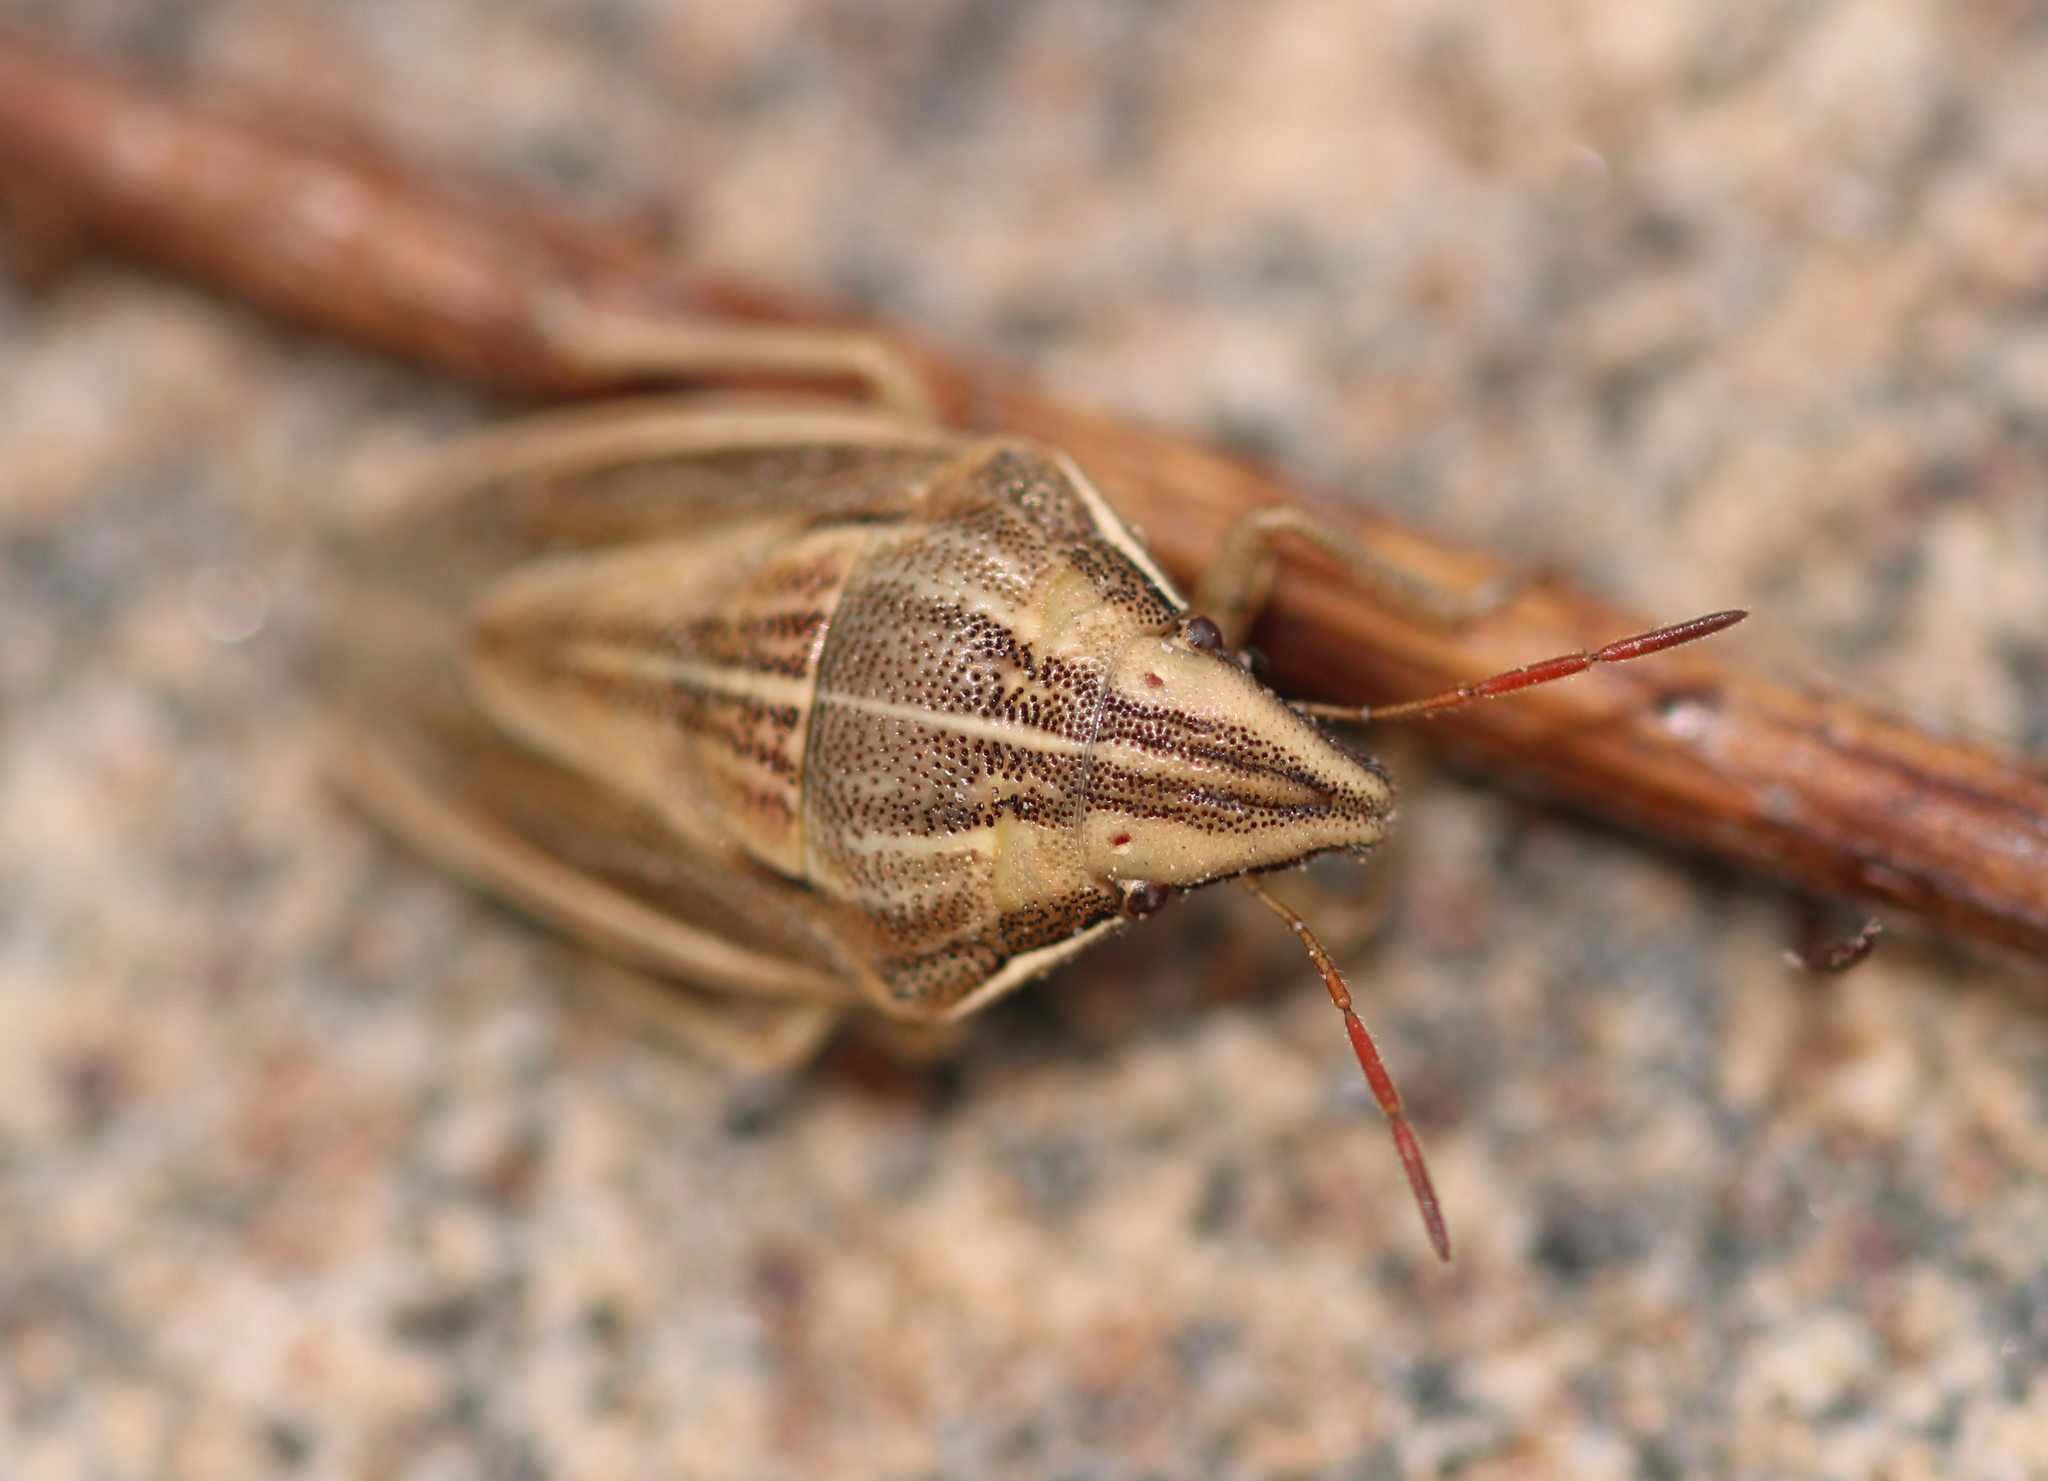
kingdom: Animalia
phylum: Arthropoda
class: Insecta
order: Hemiptera
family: Pentatomidae
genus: Aelia
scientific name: Aelia acuminata
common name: Bishop's mitre
